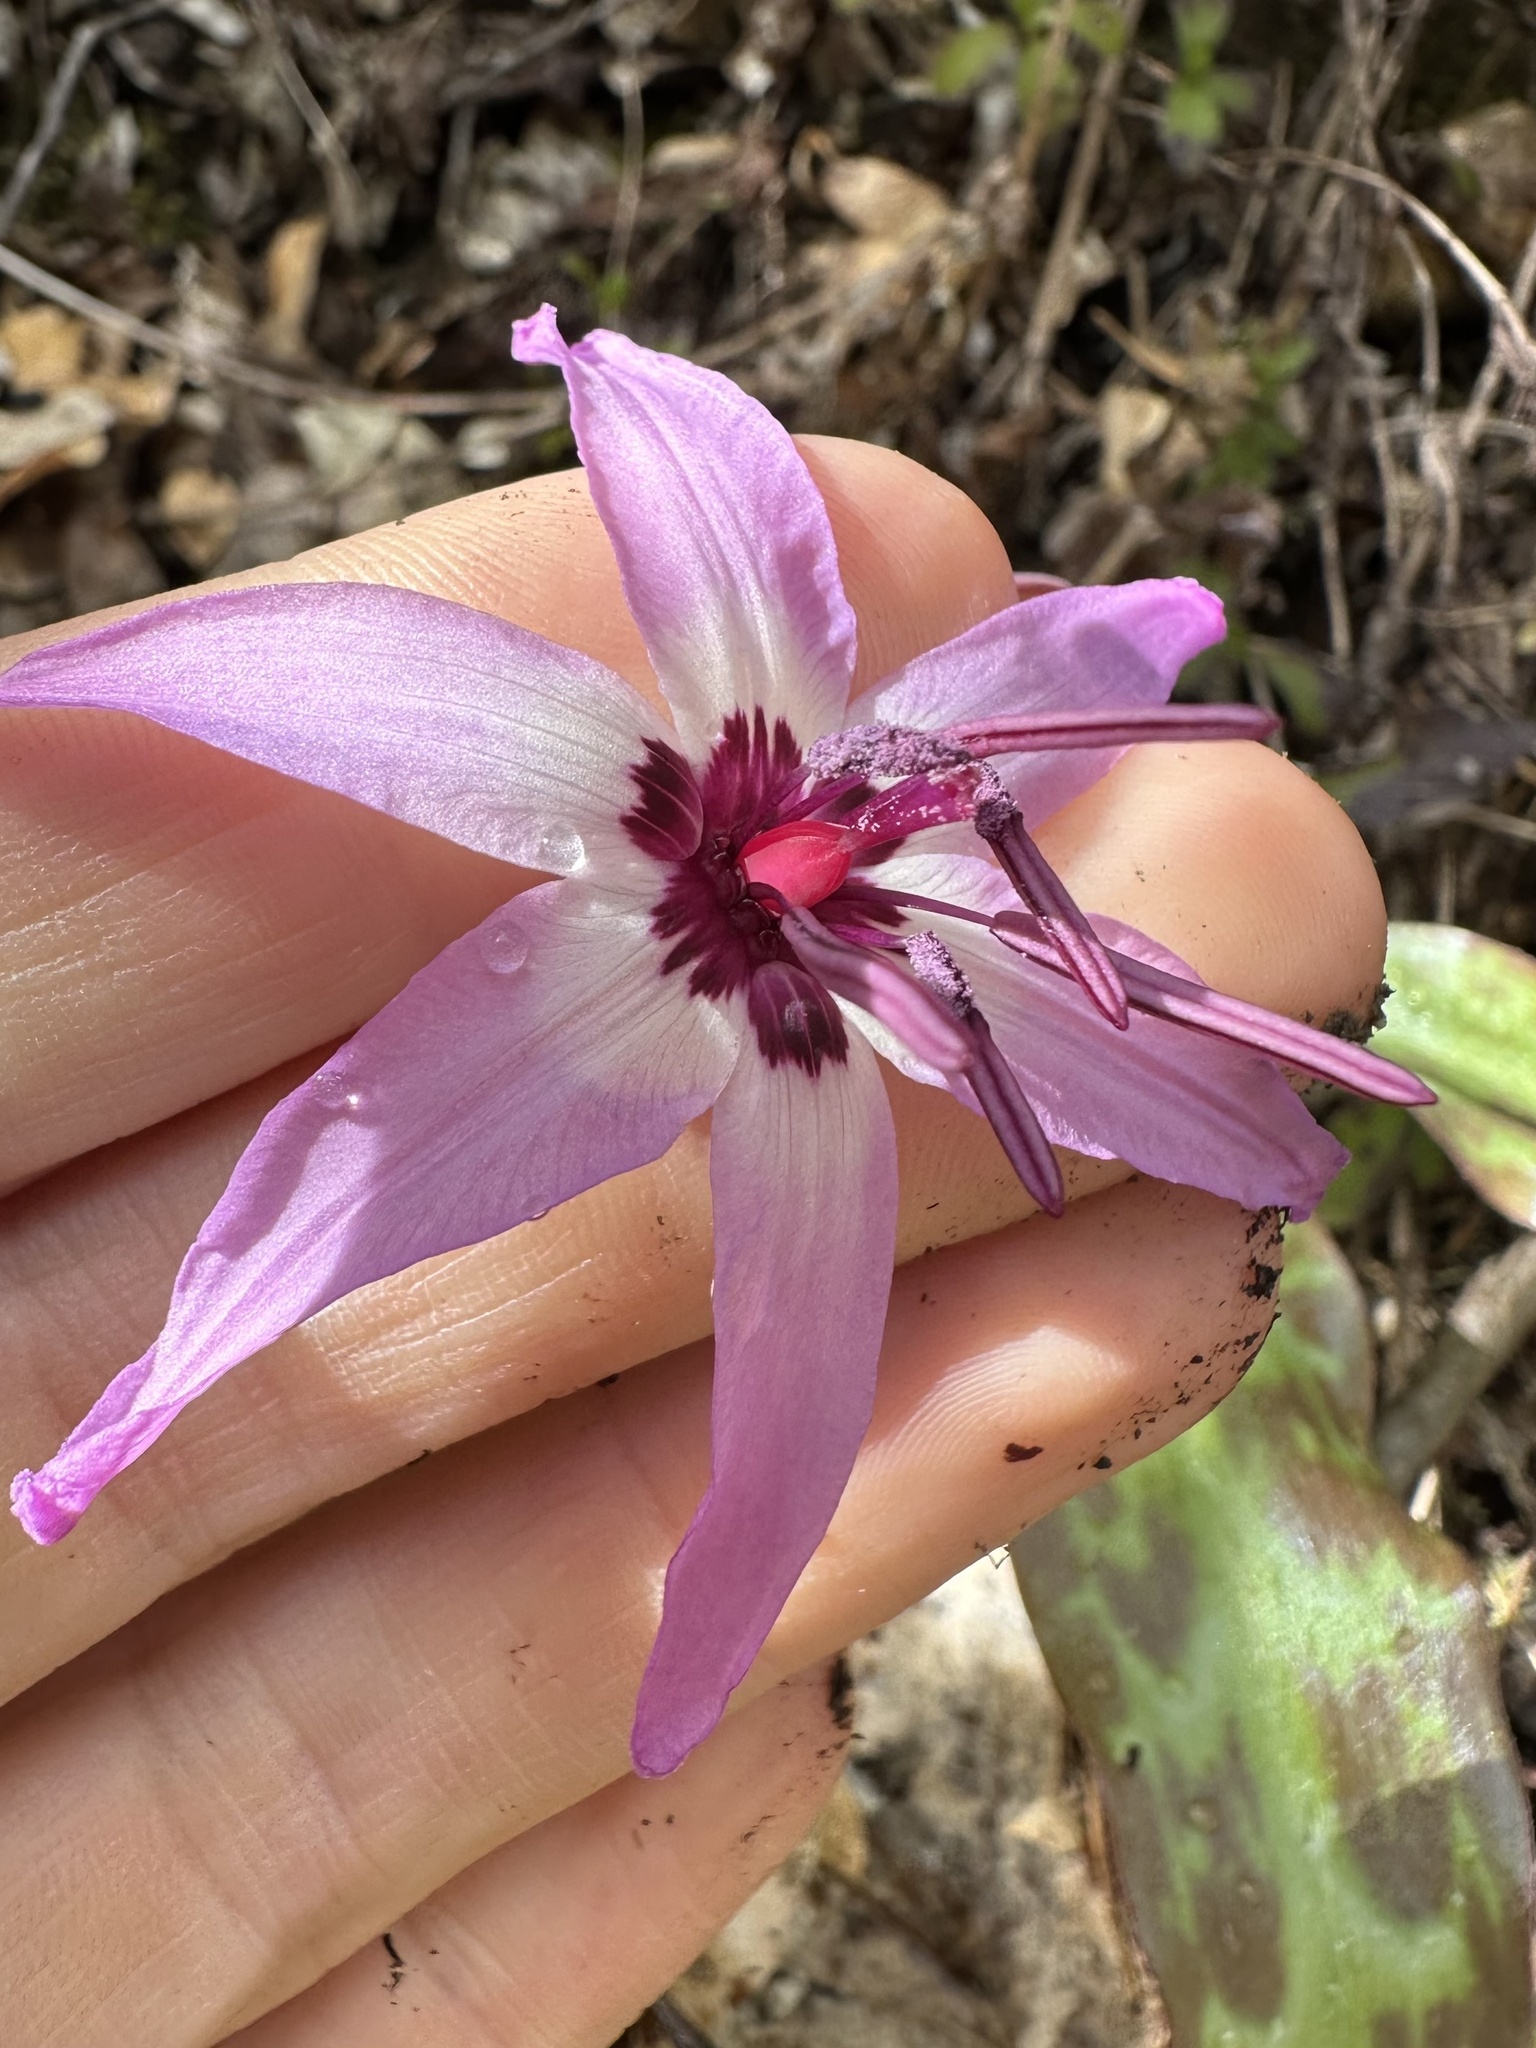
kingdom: Plantae
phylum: Tracheophyta
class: Liliopsida
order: Liliales
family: Liliaceae
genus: Erythronium
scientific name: Erythronium hendersonii
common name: Henderson's fawn-lily
